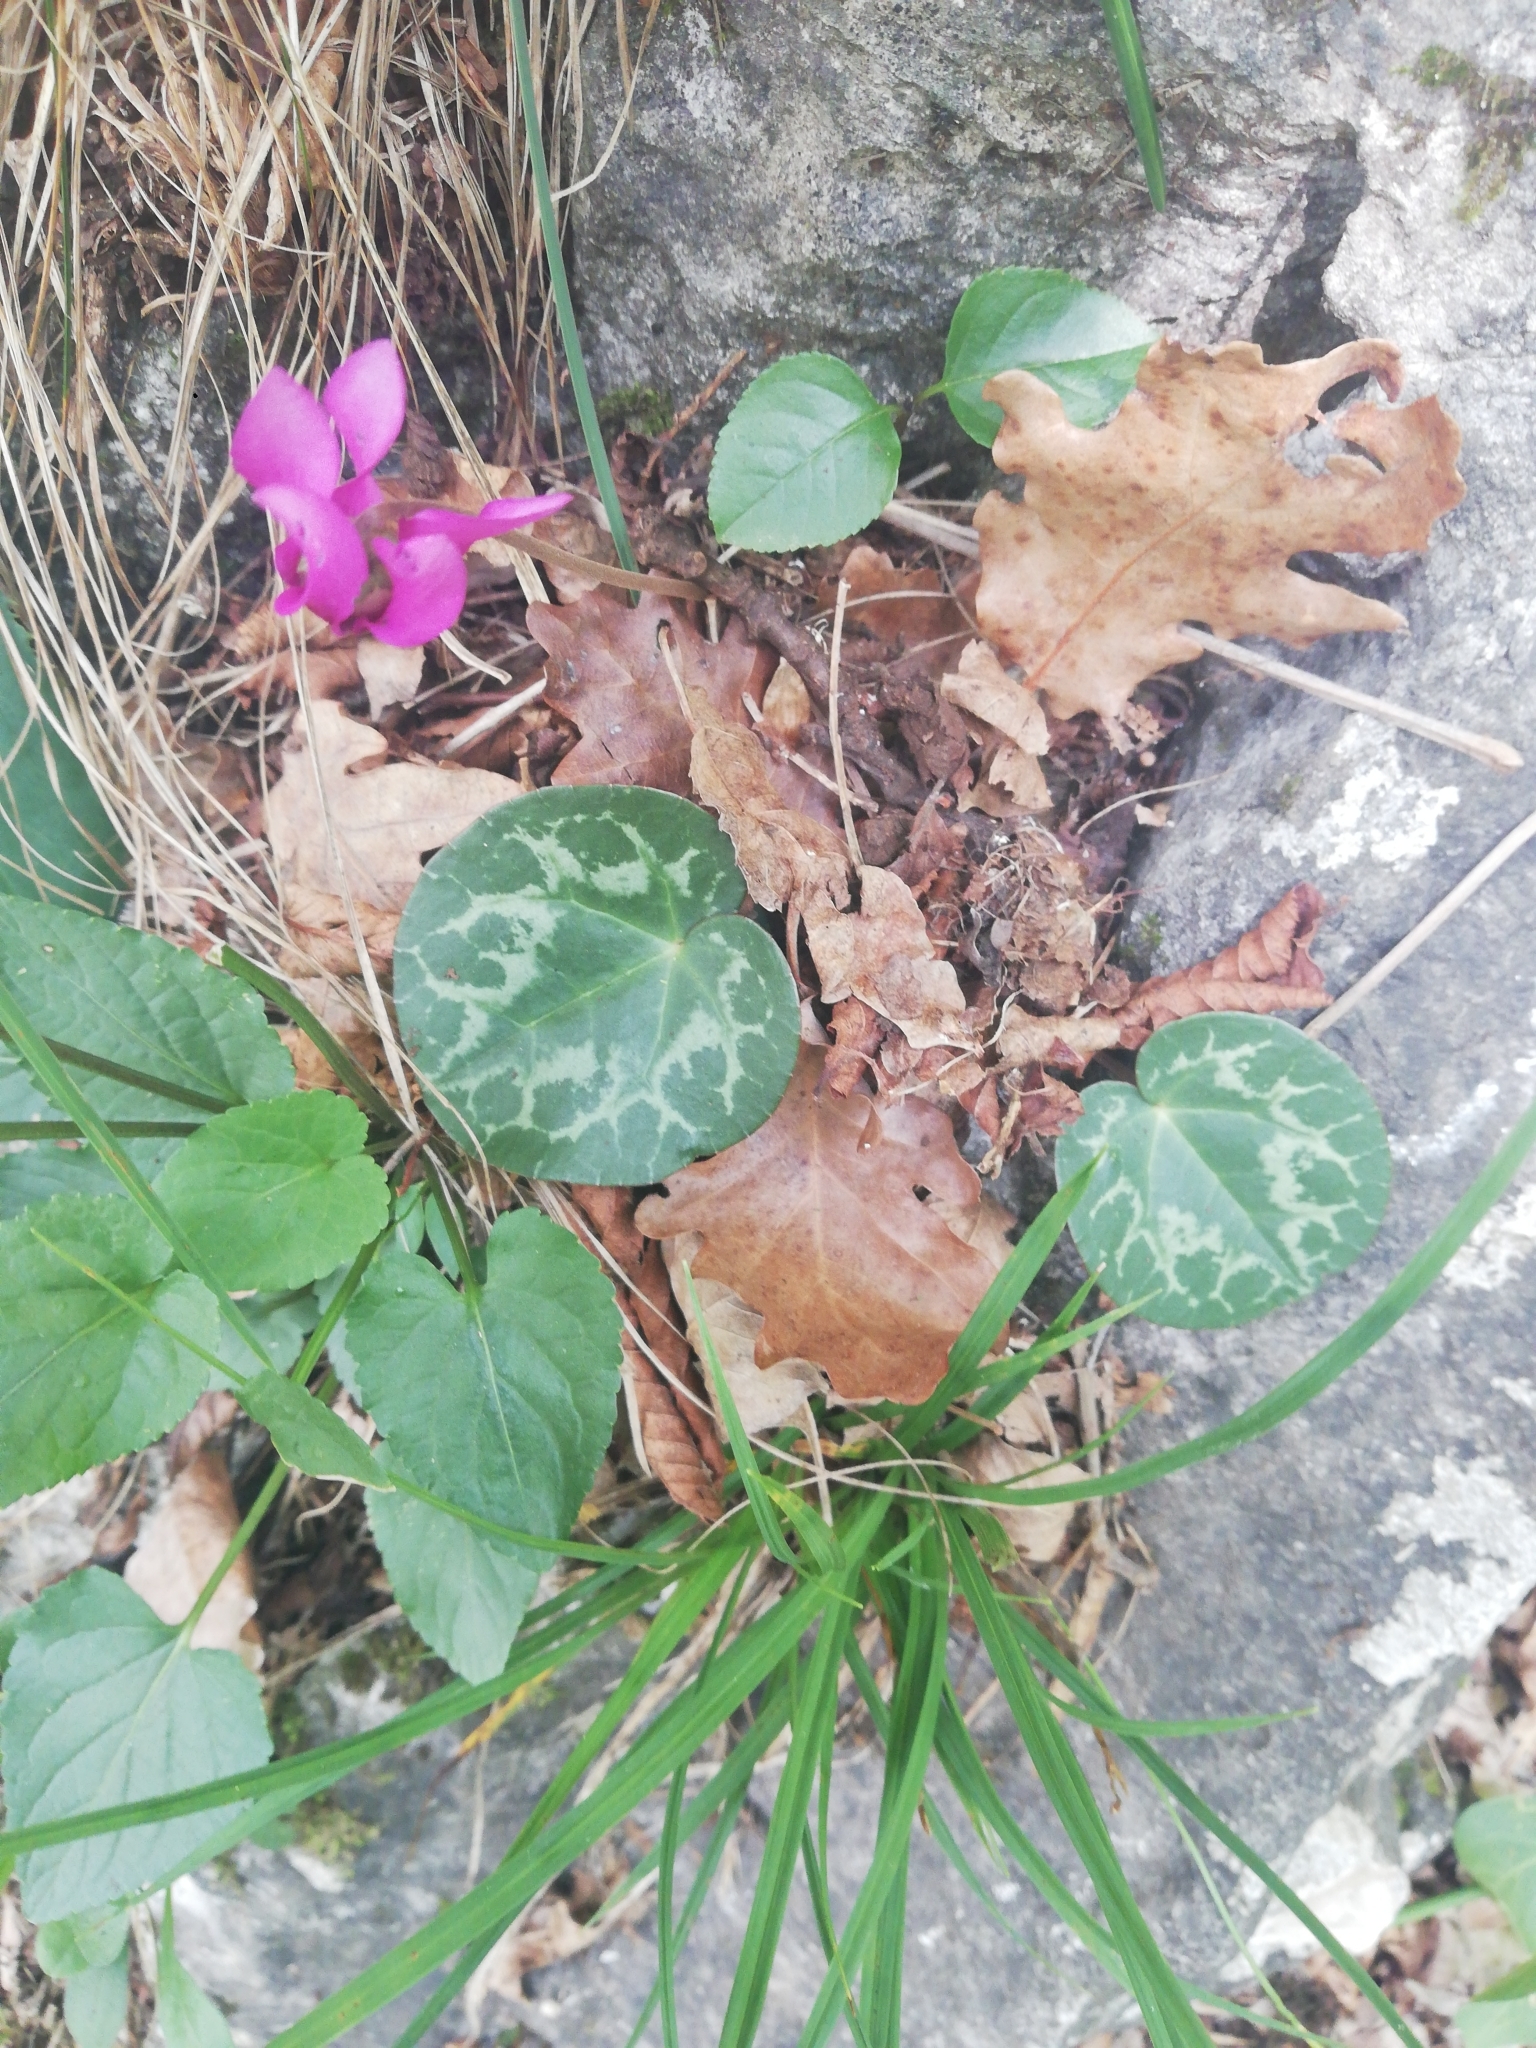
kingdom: Plantae
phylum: Tracheophyta
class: Magnoliopsida
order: Ericales
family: Primulaceae
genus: Cyclamen
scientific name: Cyclamen purpurascens
